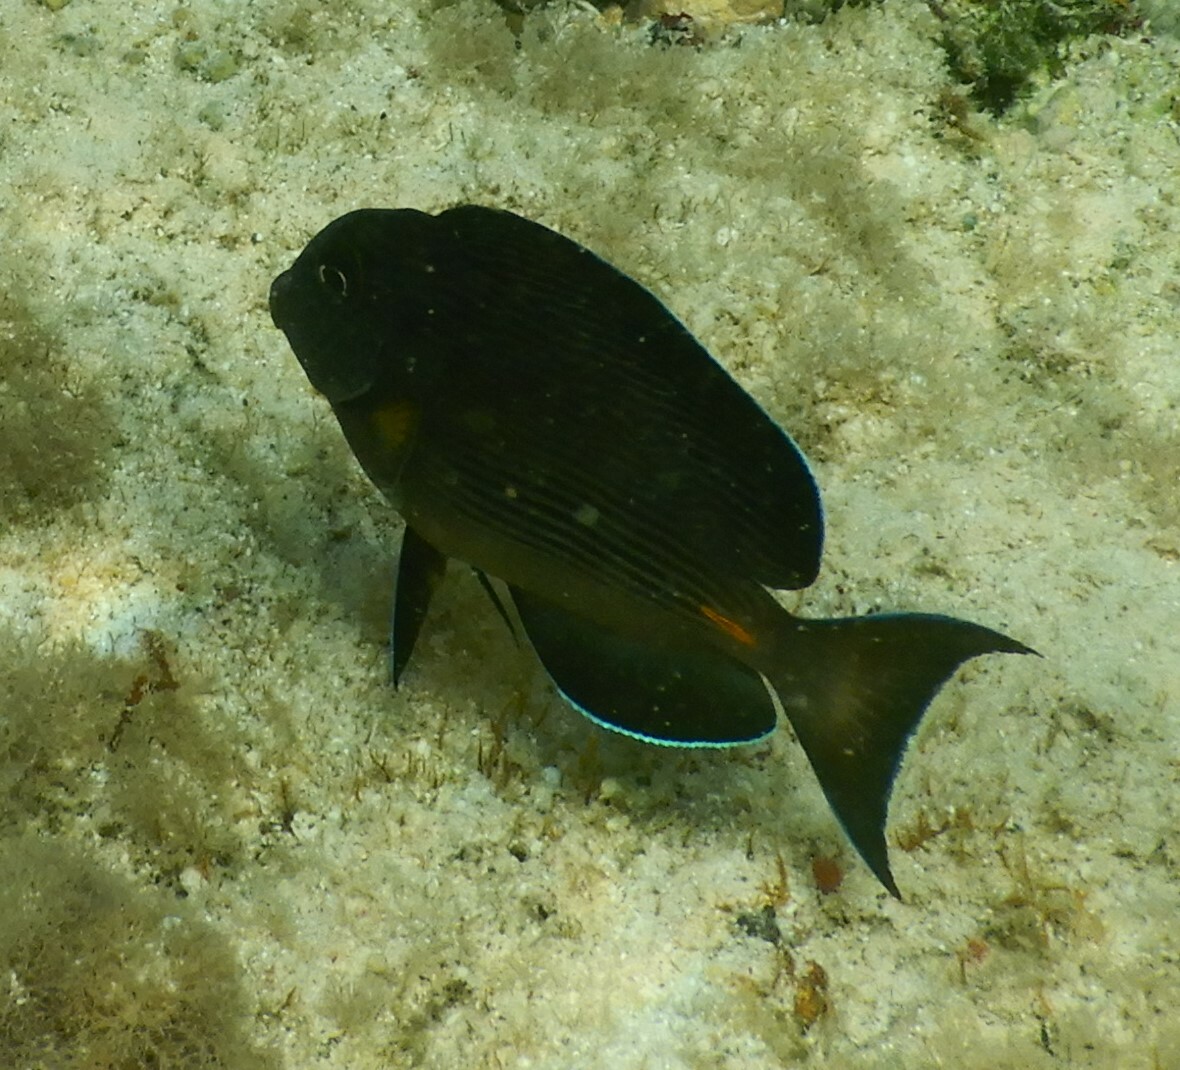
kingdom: Animalia
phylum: Chordata
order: Perciformes
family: Acanthuridae
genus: Acanthurus
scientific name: Acanthurus sohal
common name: Red sea surgeonfish
